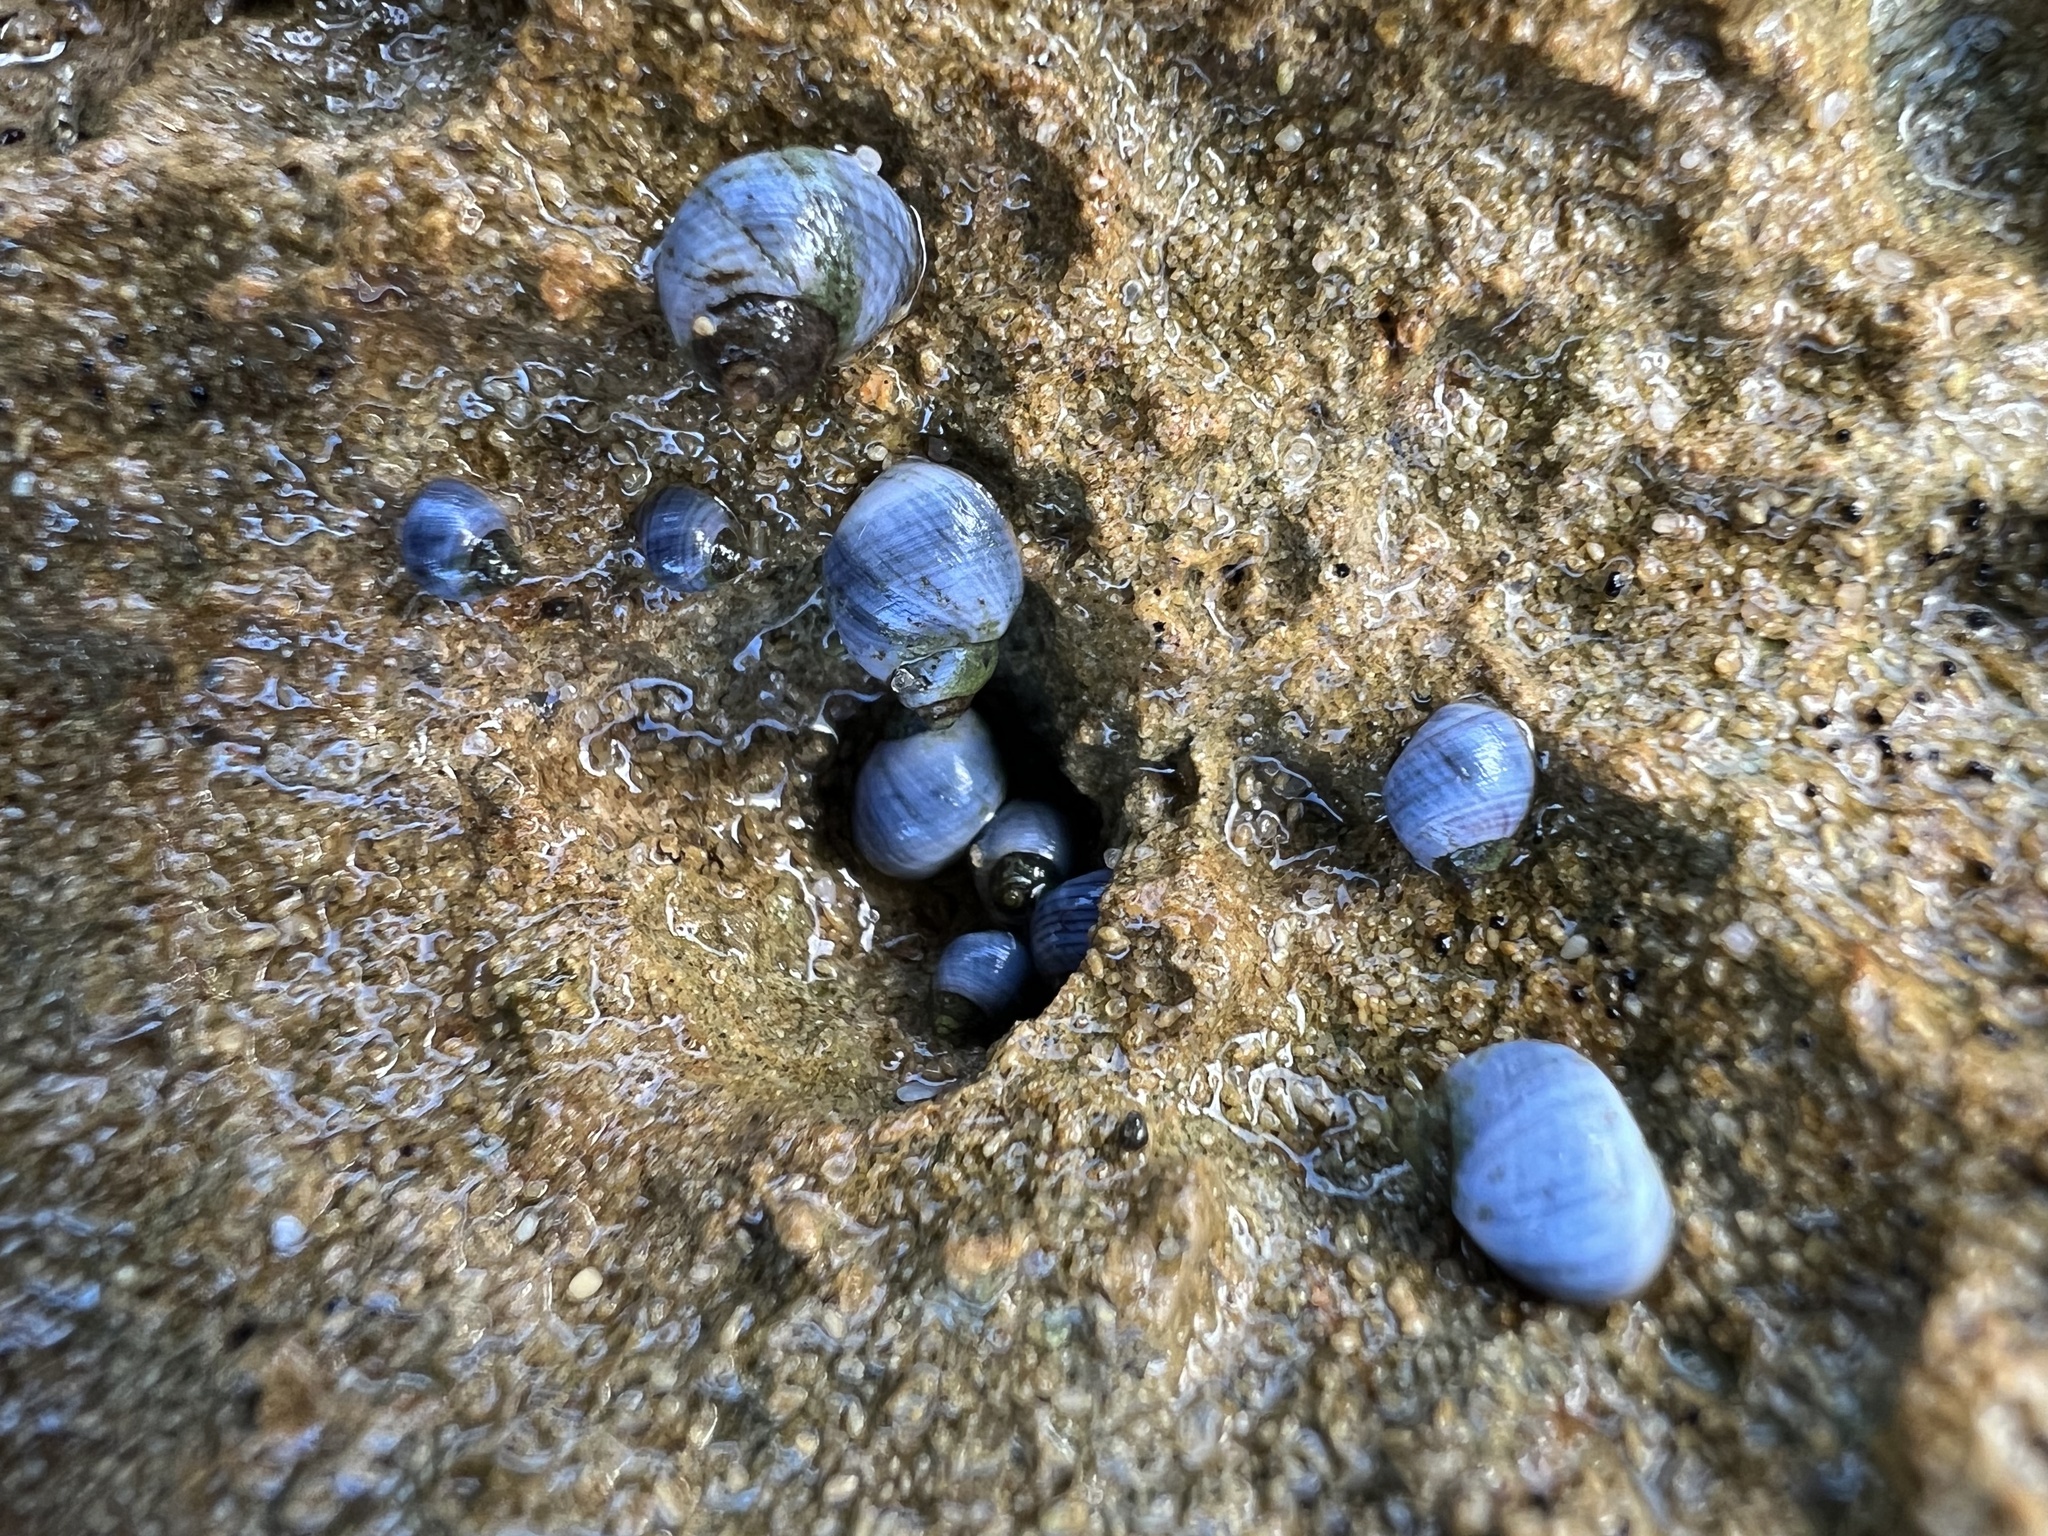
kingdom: Animalia
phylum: Mollusca
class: Gastropoda
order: Littorinimorpha
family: Littorinidae
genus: Austrolittorina
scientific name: Austrolittorina unifasciata
